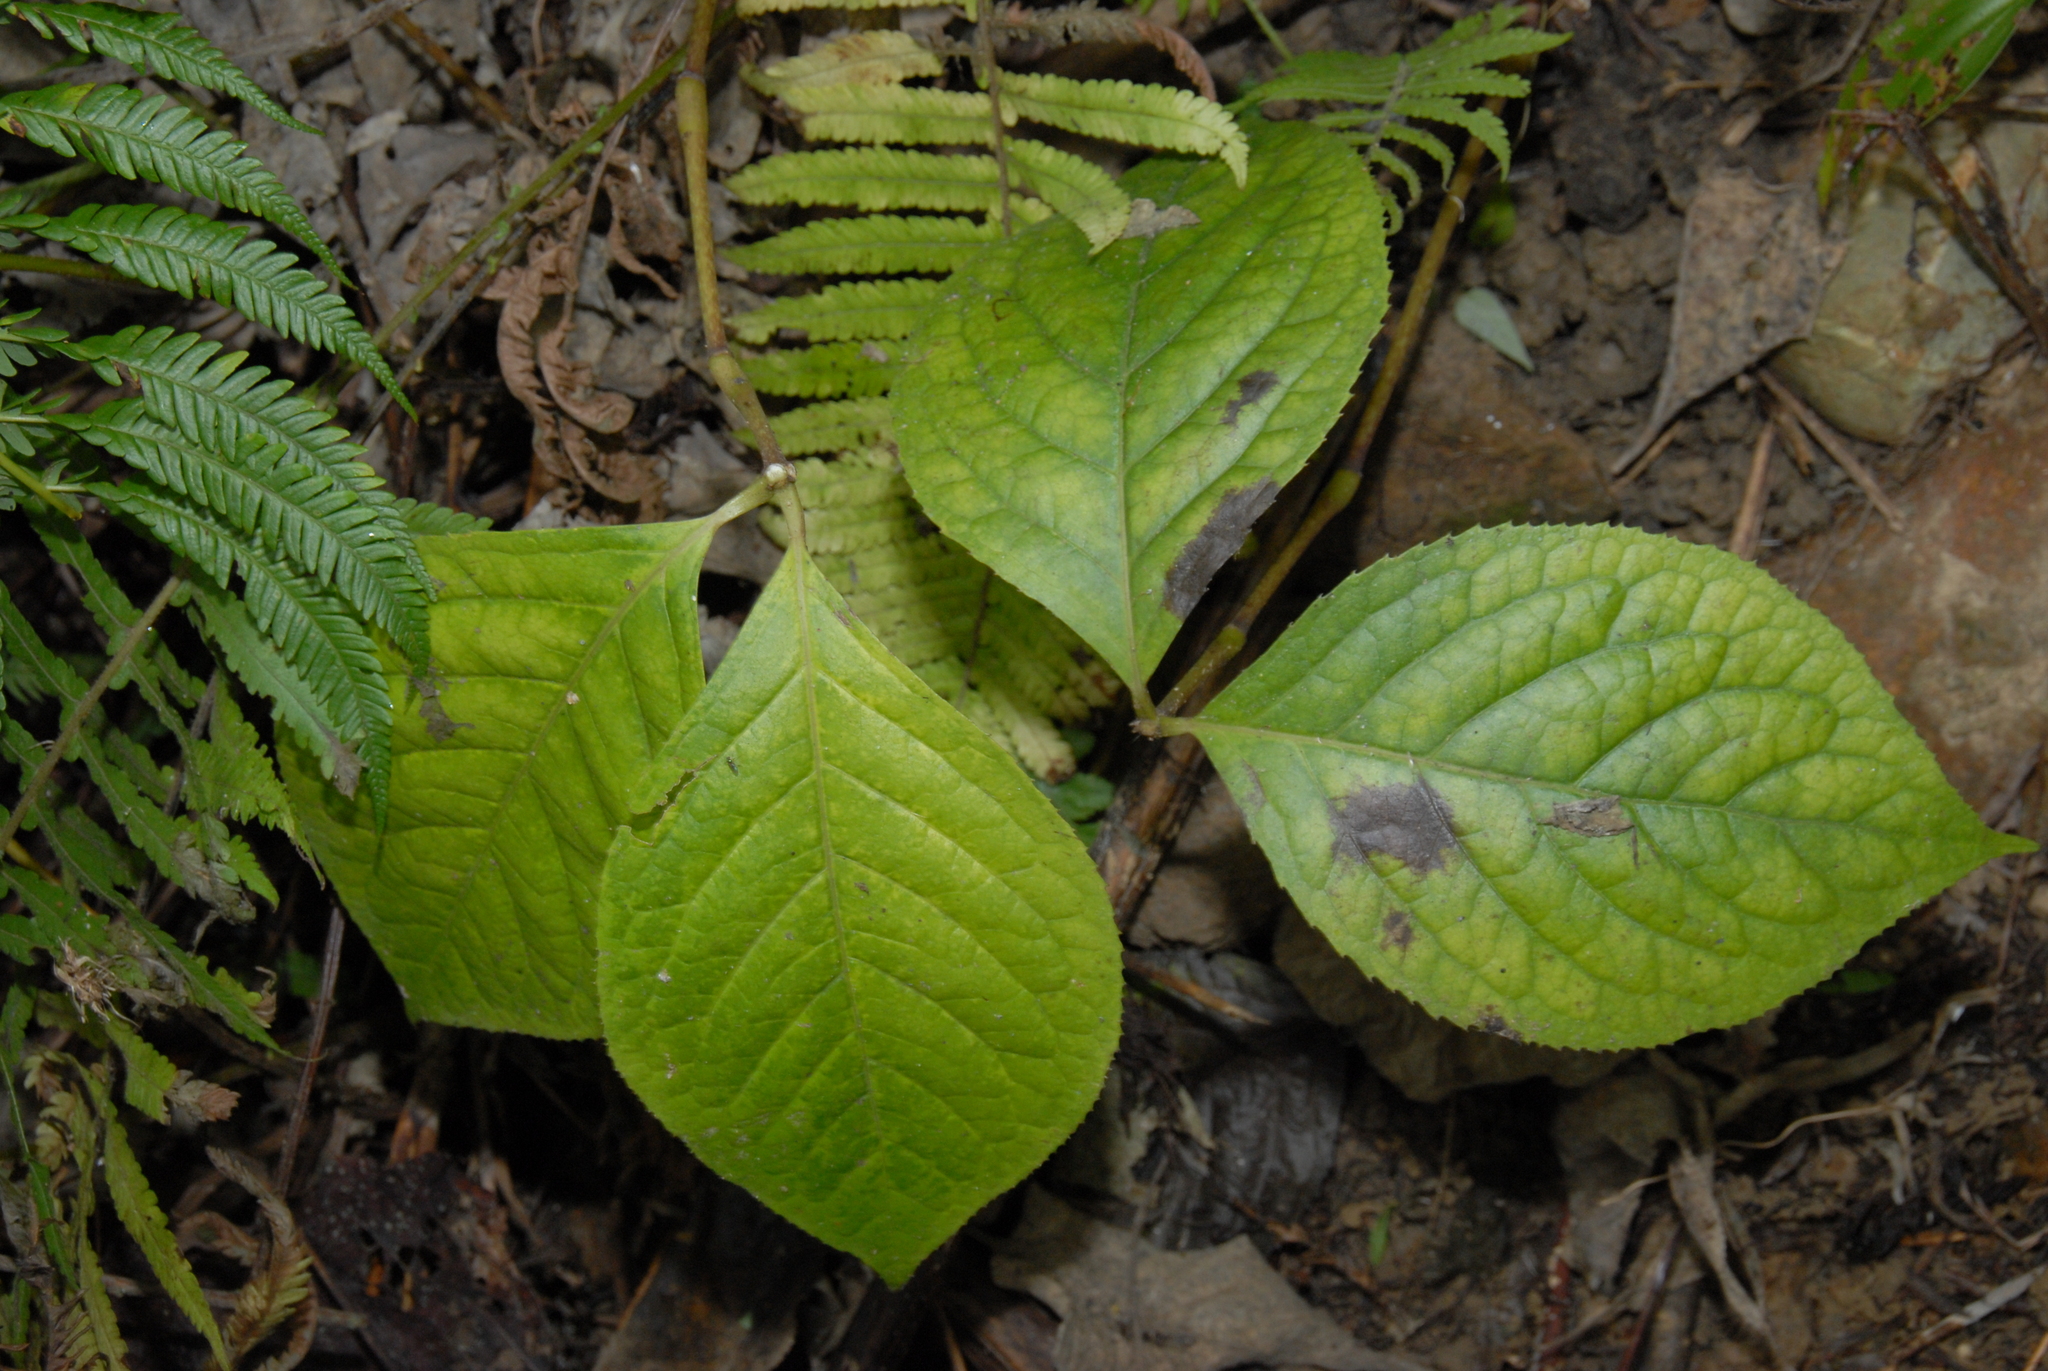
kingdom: Plantae
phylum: Tracheophyta
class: Magnoliopsida
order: Chloranthales
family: Chloranthaceae
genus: Chloranthus
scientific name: Chloranthus oldhamii
